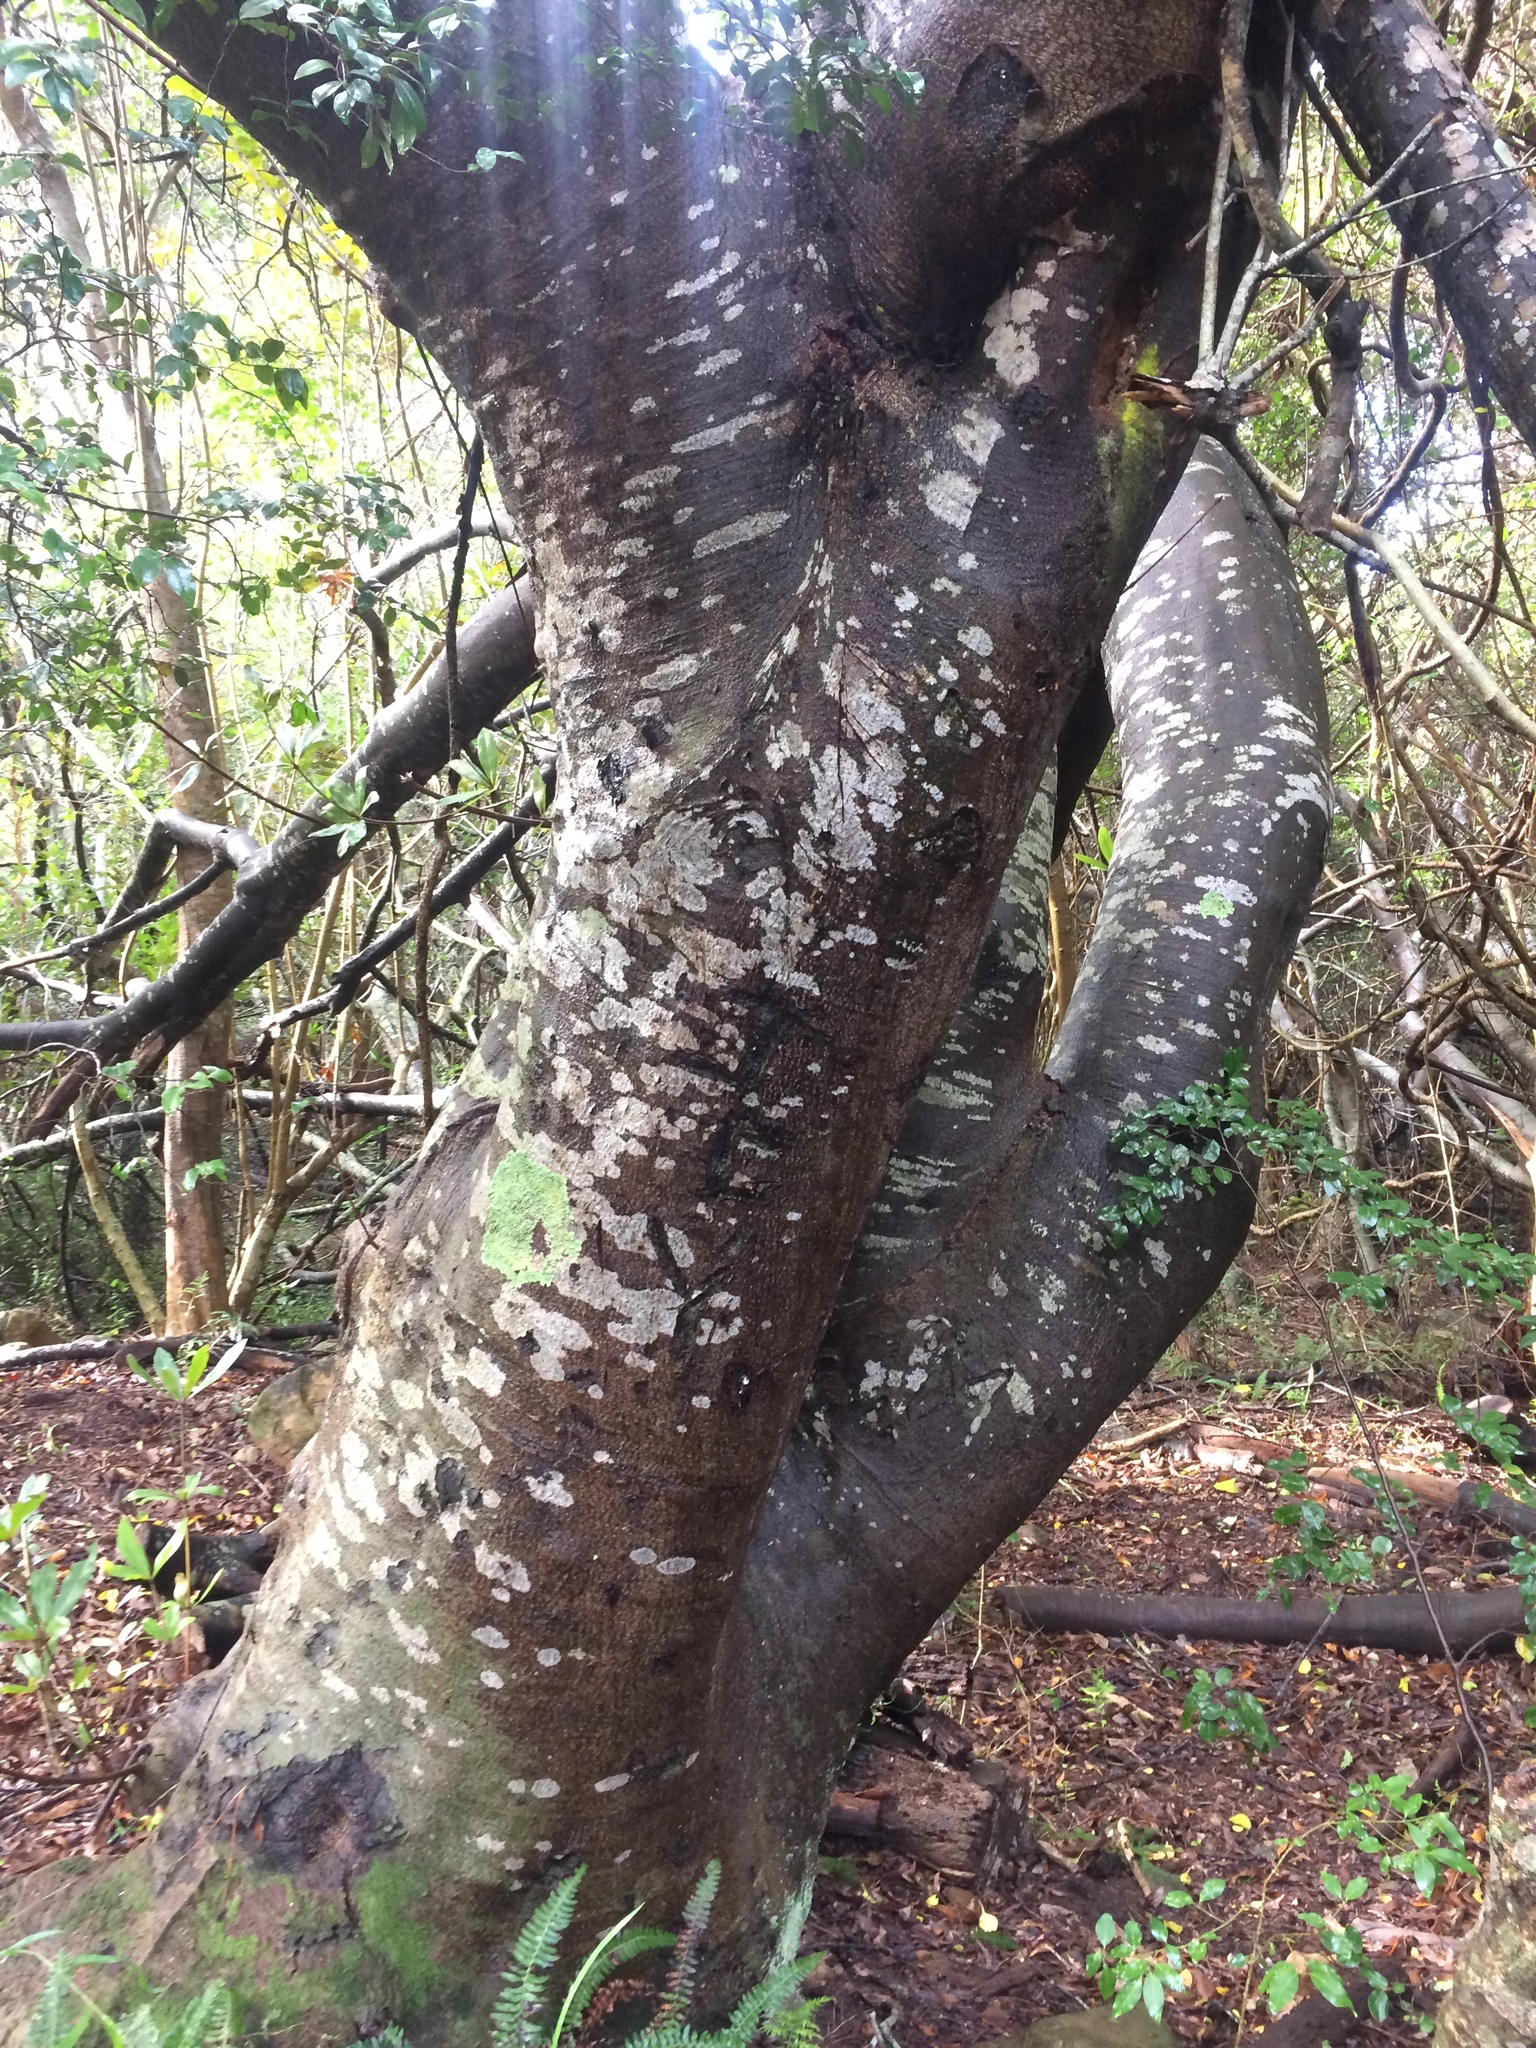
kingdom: Plantae
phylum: Tracheophyta
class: Magnoliopsida
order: Proteales
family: Proteaceae
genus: Brabejum
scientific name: Brabejum stellatifolium
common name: Wild almond
